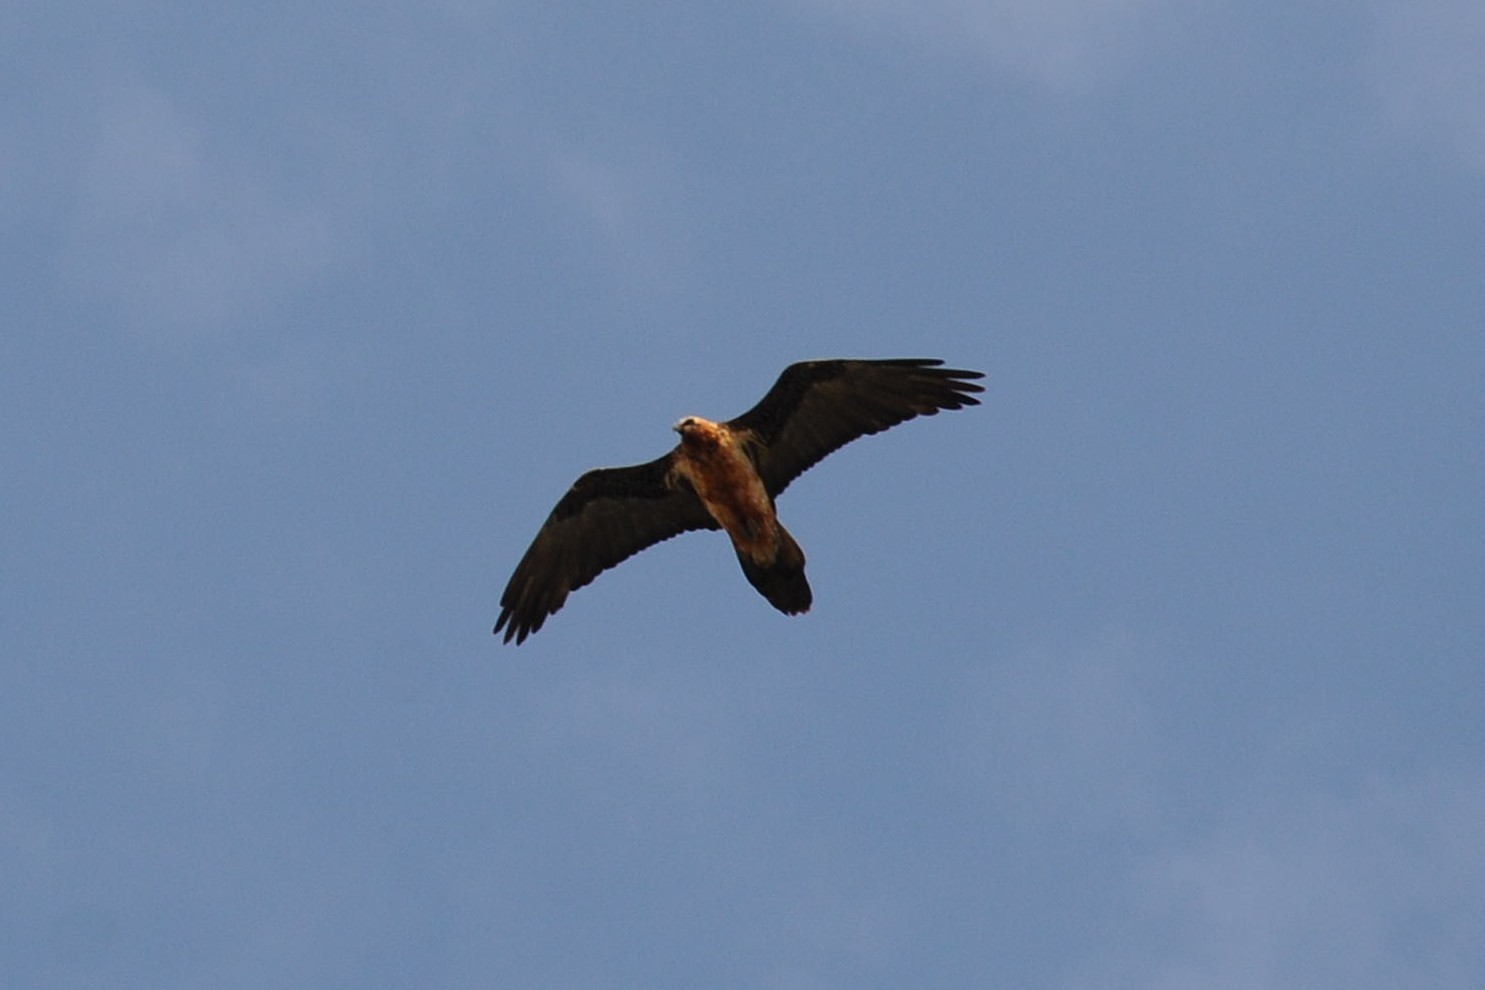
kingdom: Animalia
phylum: Chordata
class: Aves
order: Accipitriformes
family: Accipitridae
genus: Gypaetus
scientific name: Gypaetus barbatus
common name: Bearded vulture
